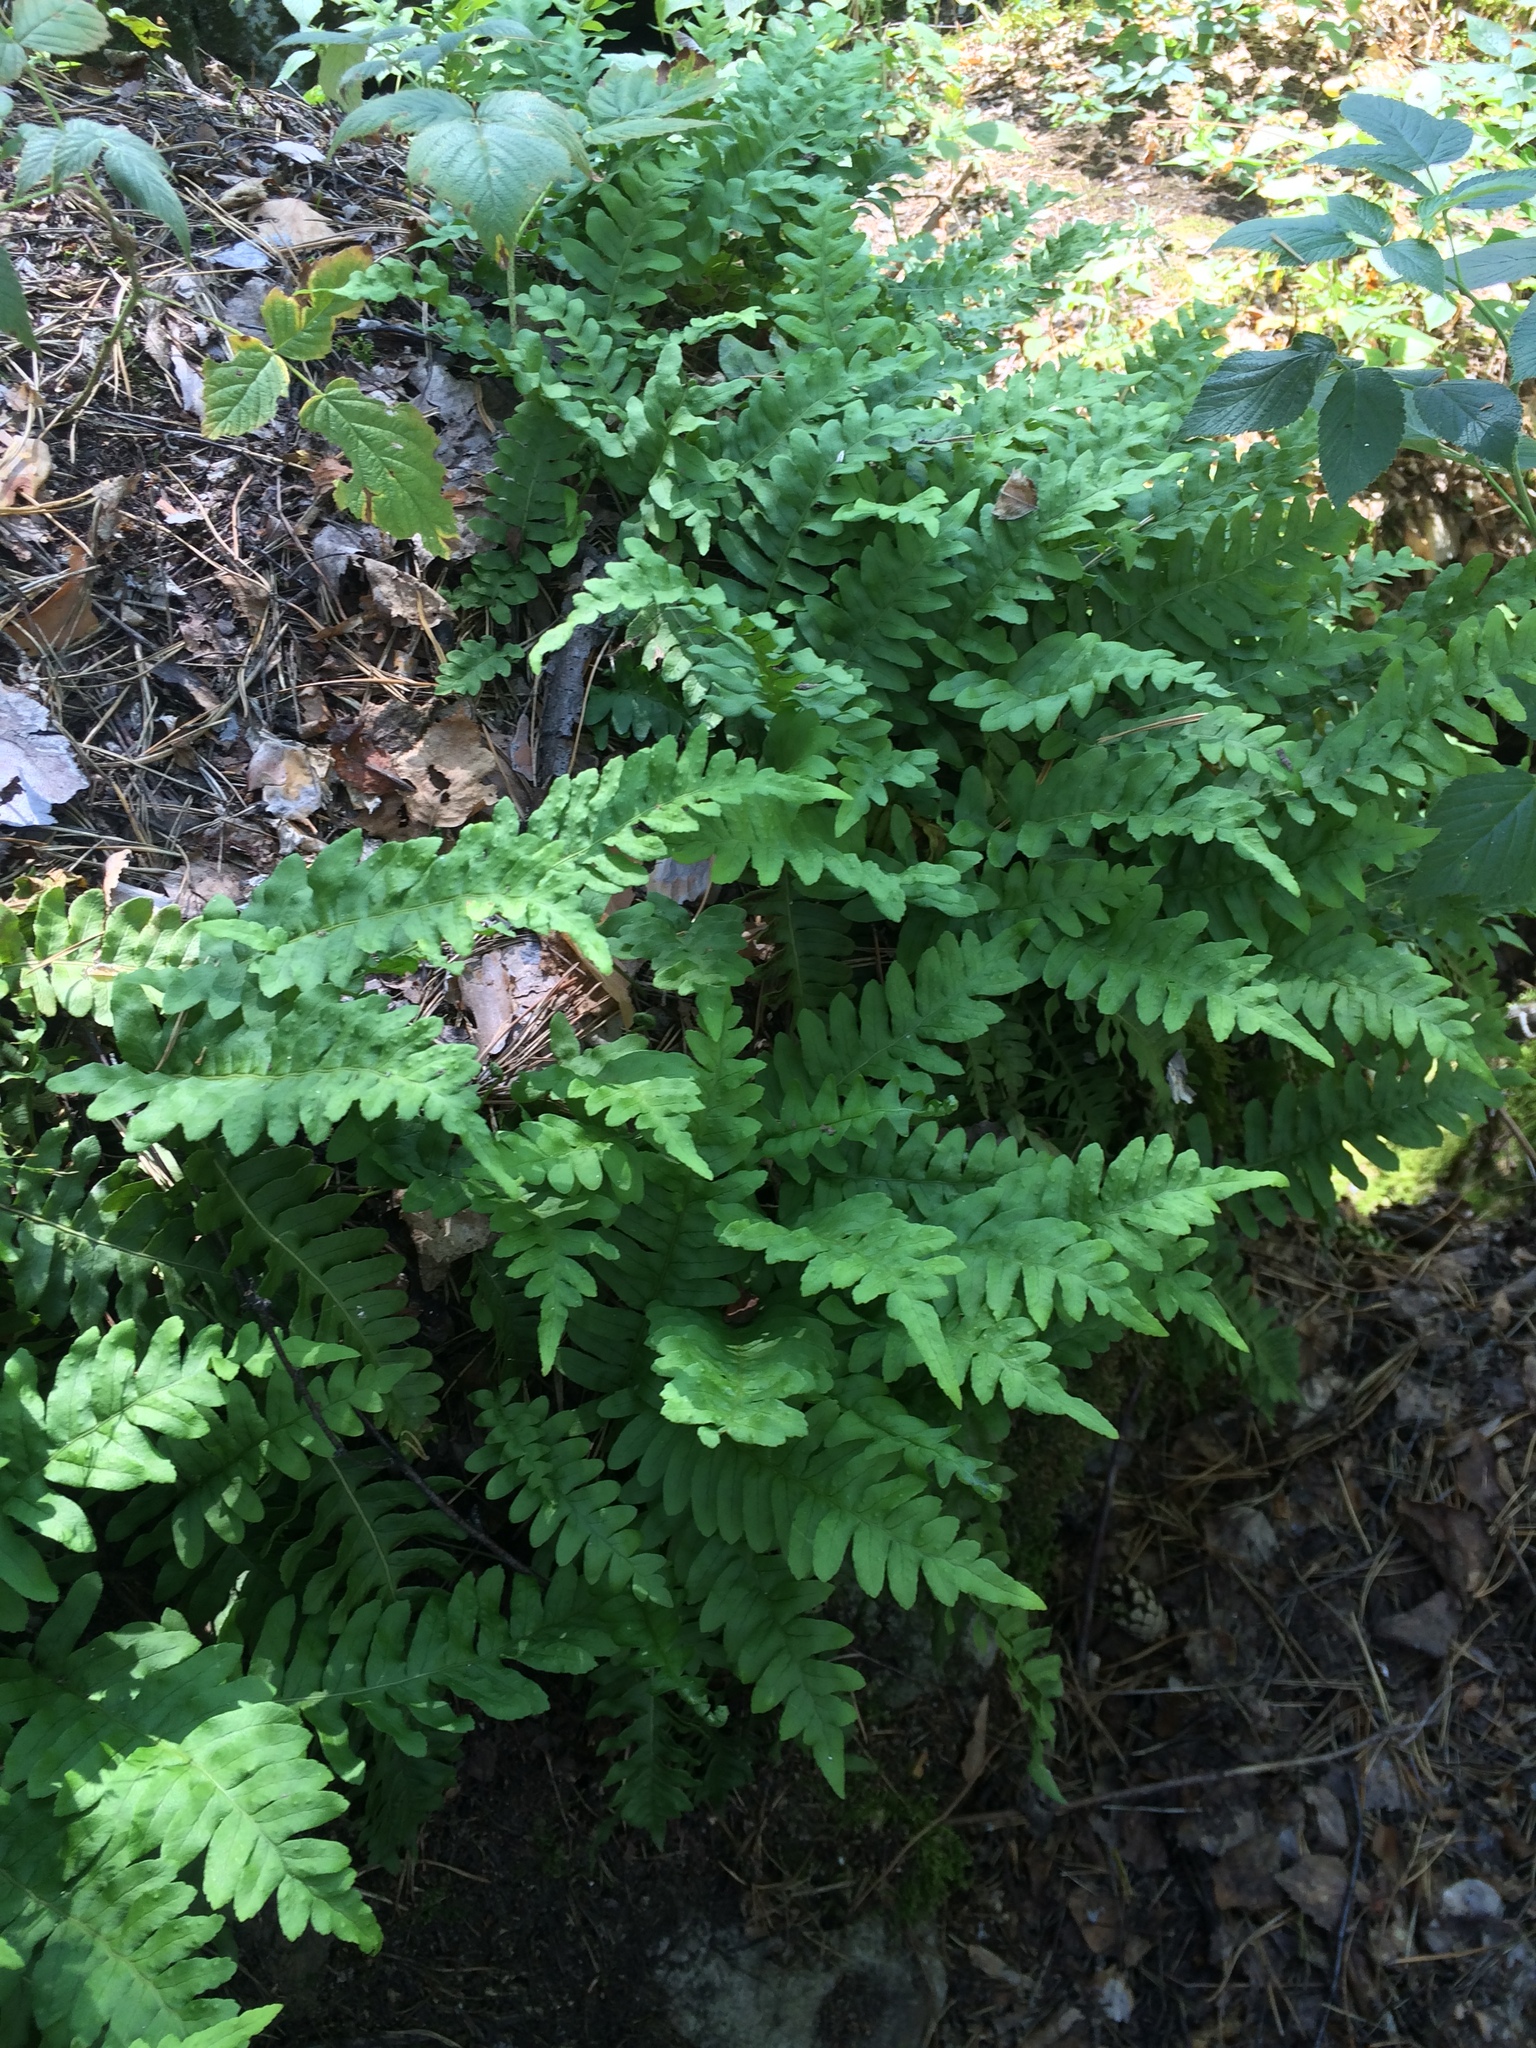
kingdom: Plantae
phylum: Tracheophyta
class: Polypodiopsida
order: Polypodiales
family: Polypodiaceae
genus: Polypodium
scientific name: Polypodium vulgare
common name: Common polypody
